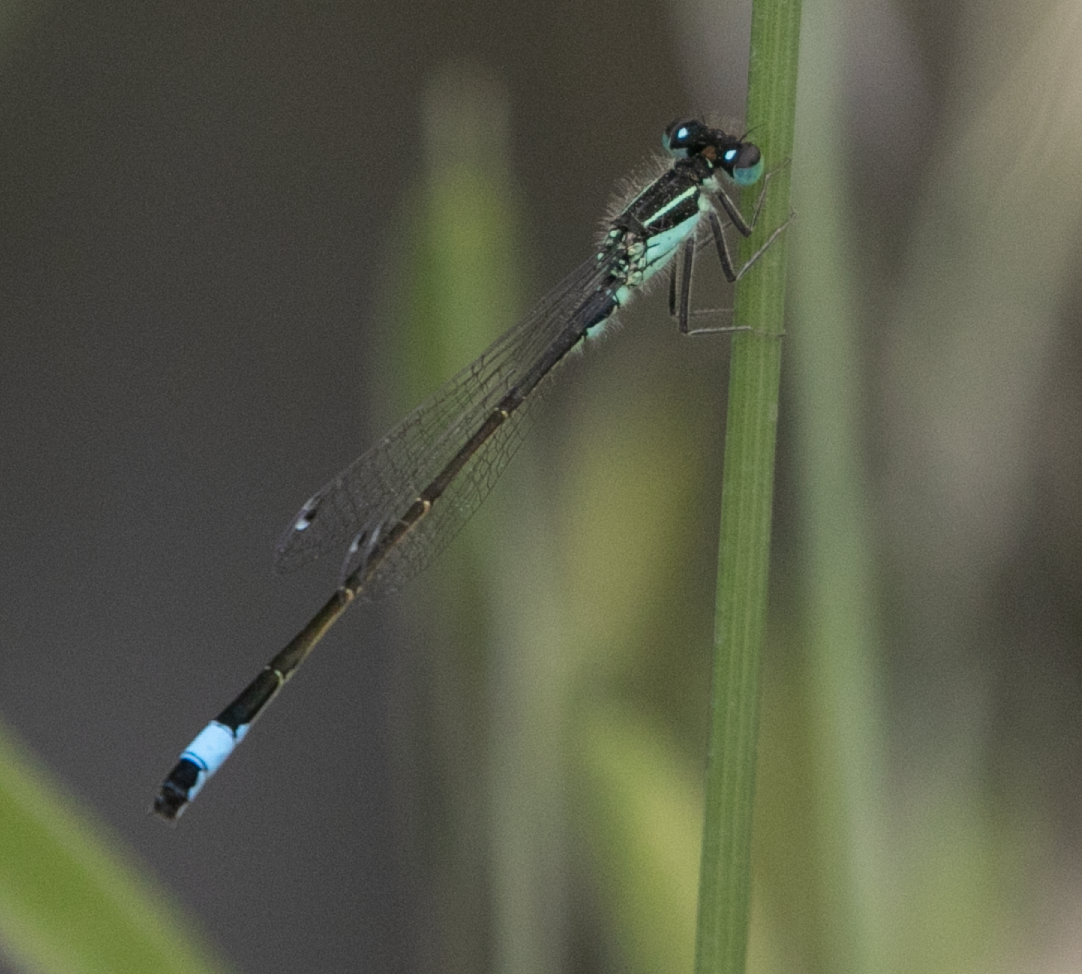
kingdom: Animalia
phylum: Arthropoda
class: Insecta
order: Odonata
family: Coenagrionidae
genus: Ischnura
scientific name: Ischnura elegans
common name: Blue-tailed damselfly
